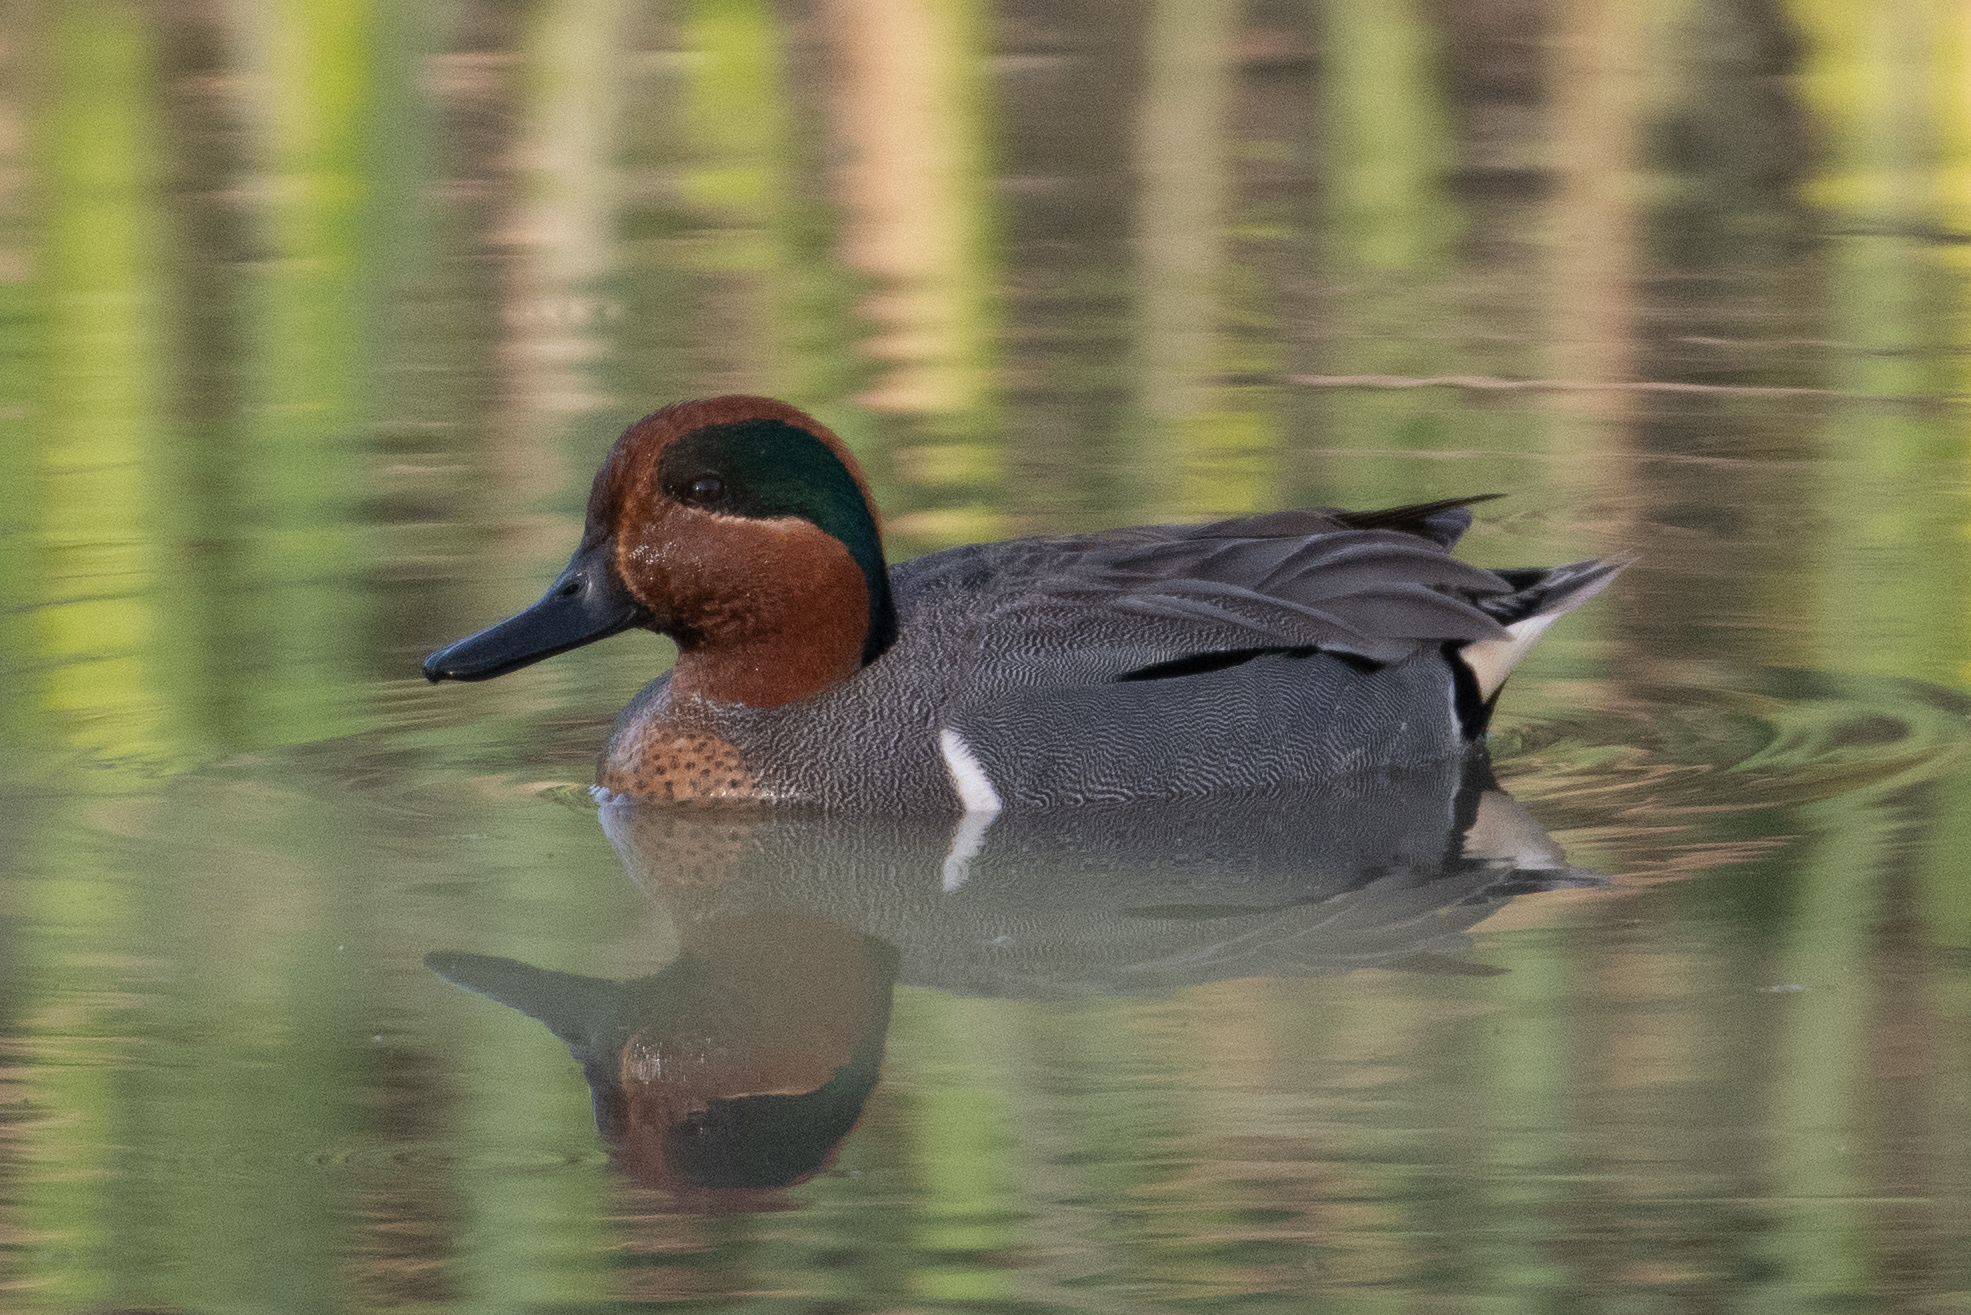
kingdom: Animalia
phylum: Chordata
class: Aves
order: Anseriformes
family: Anatidae
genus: Anas
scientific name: Anas crecca
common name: Eurasian teal
